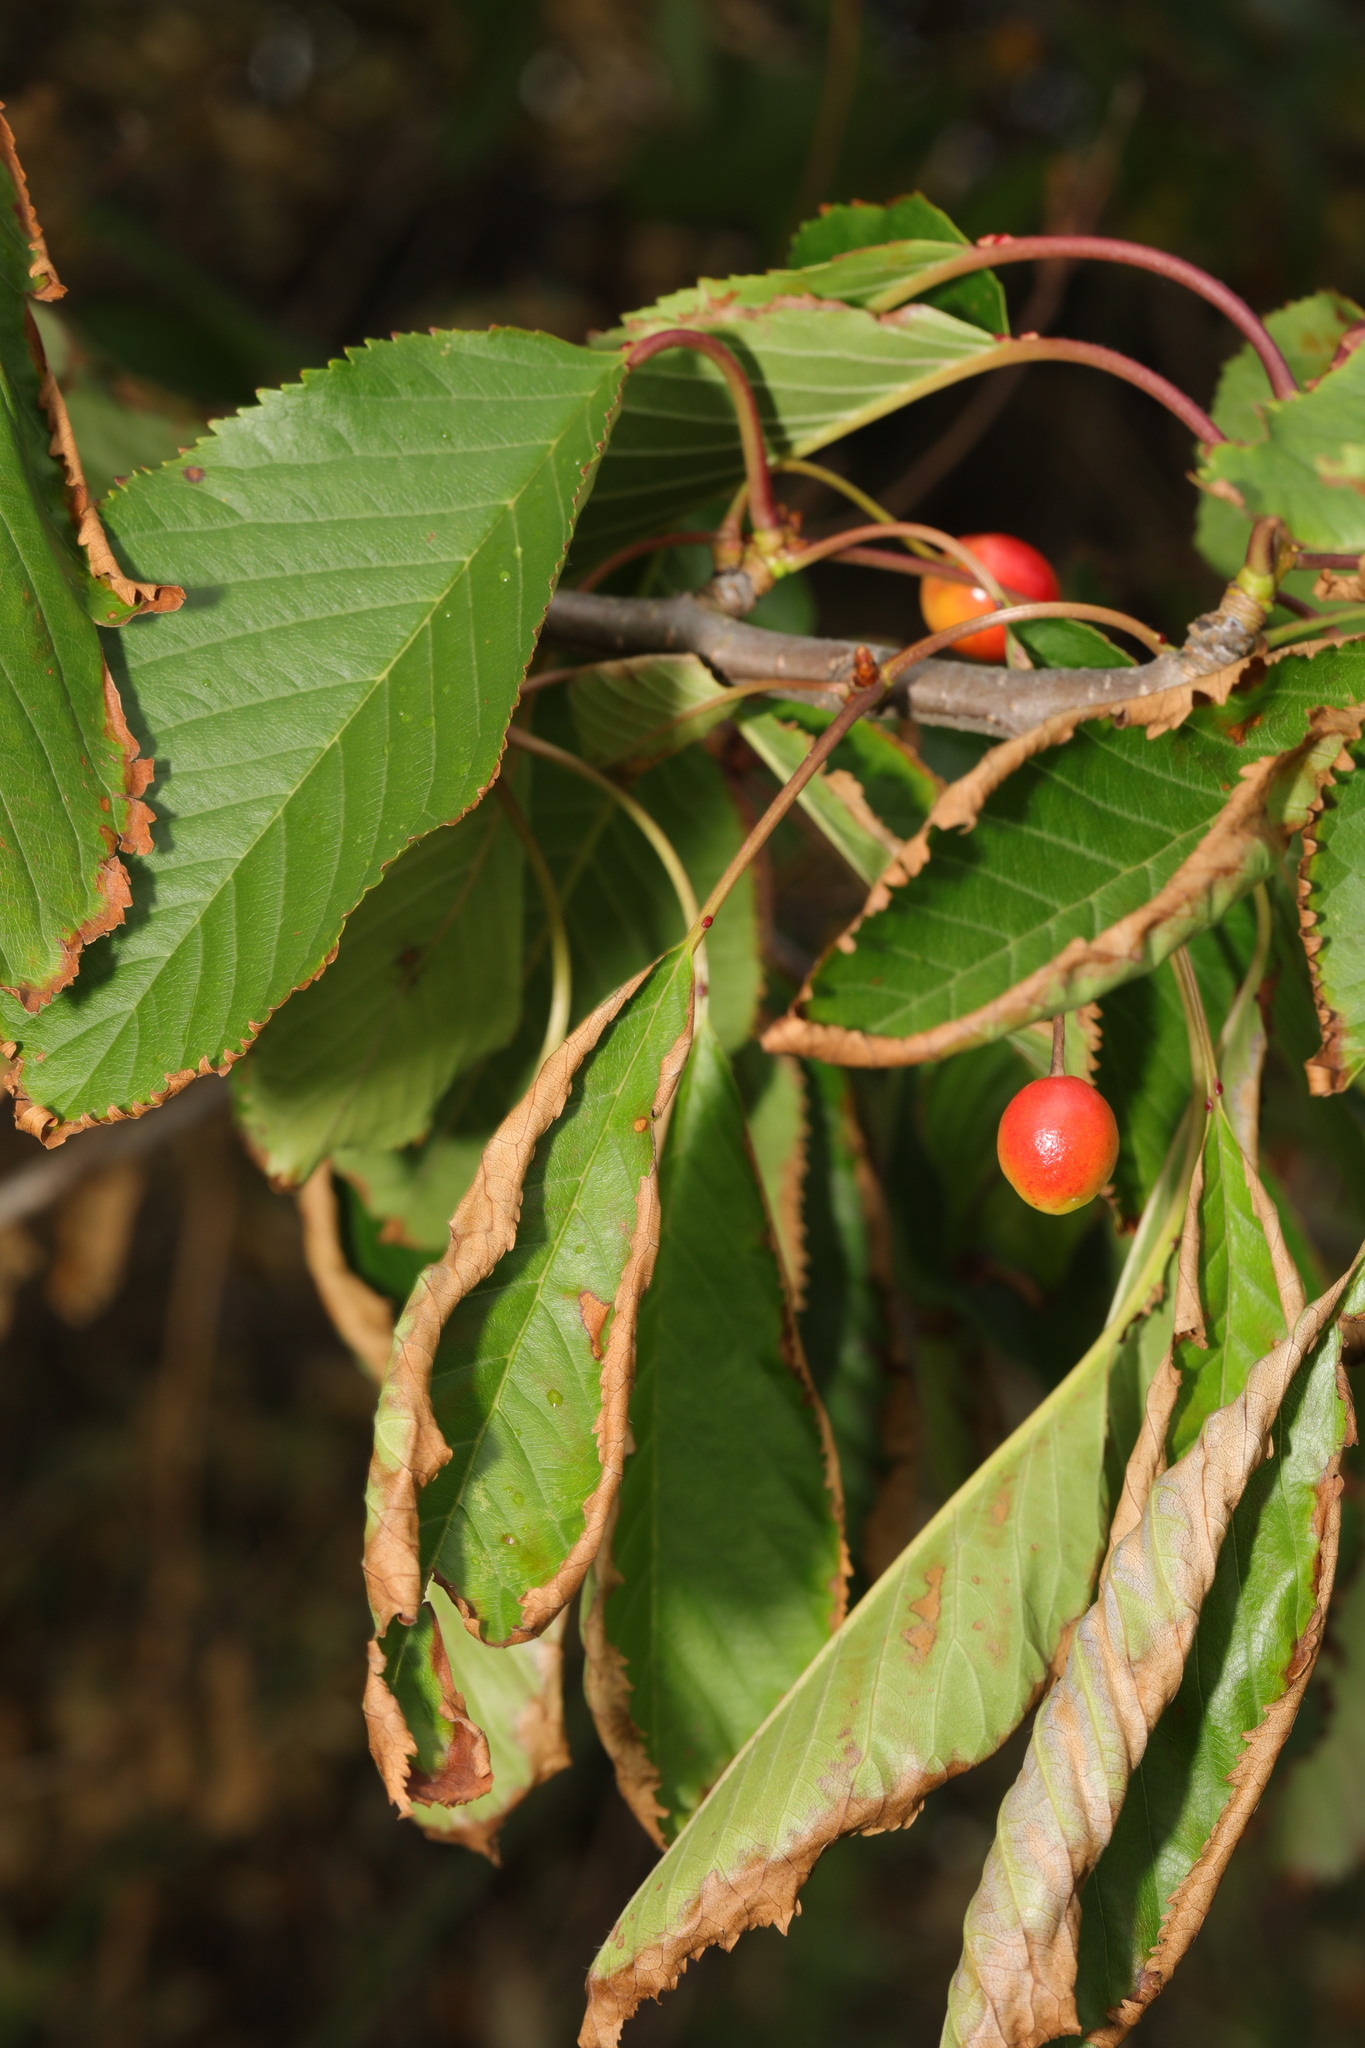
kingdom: Plantae
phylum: Tracheophyta
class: Magnoliopsida
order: Rosales
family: Rosaceae
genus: Prunus
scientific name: Prunus avium
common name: Sweet cherry
